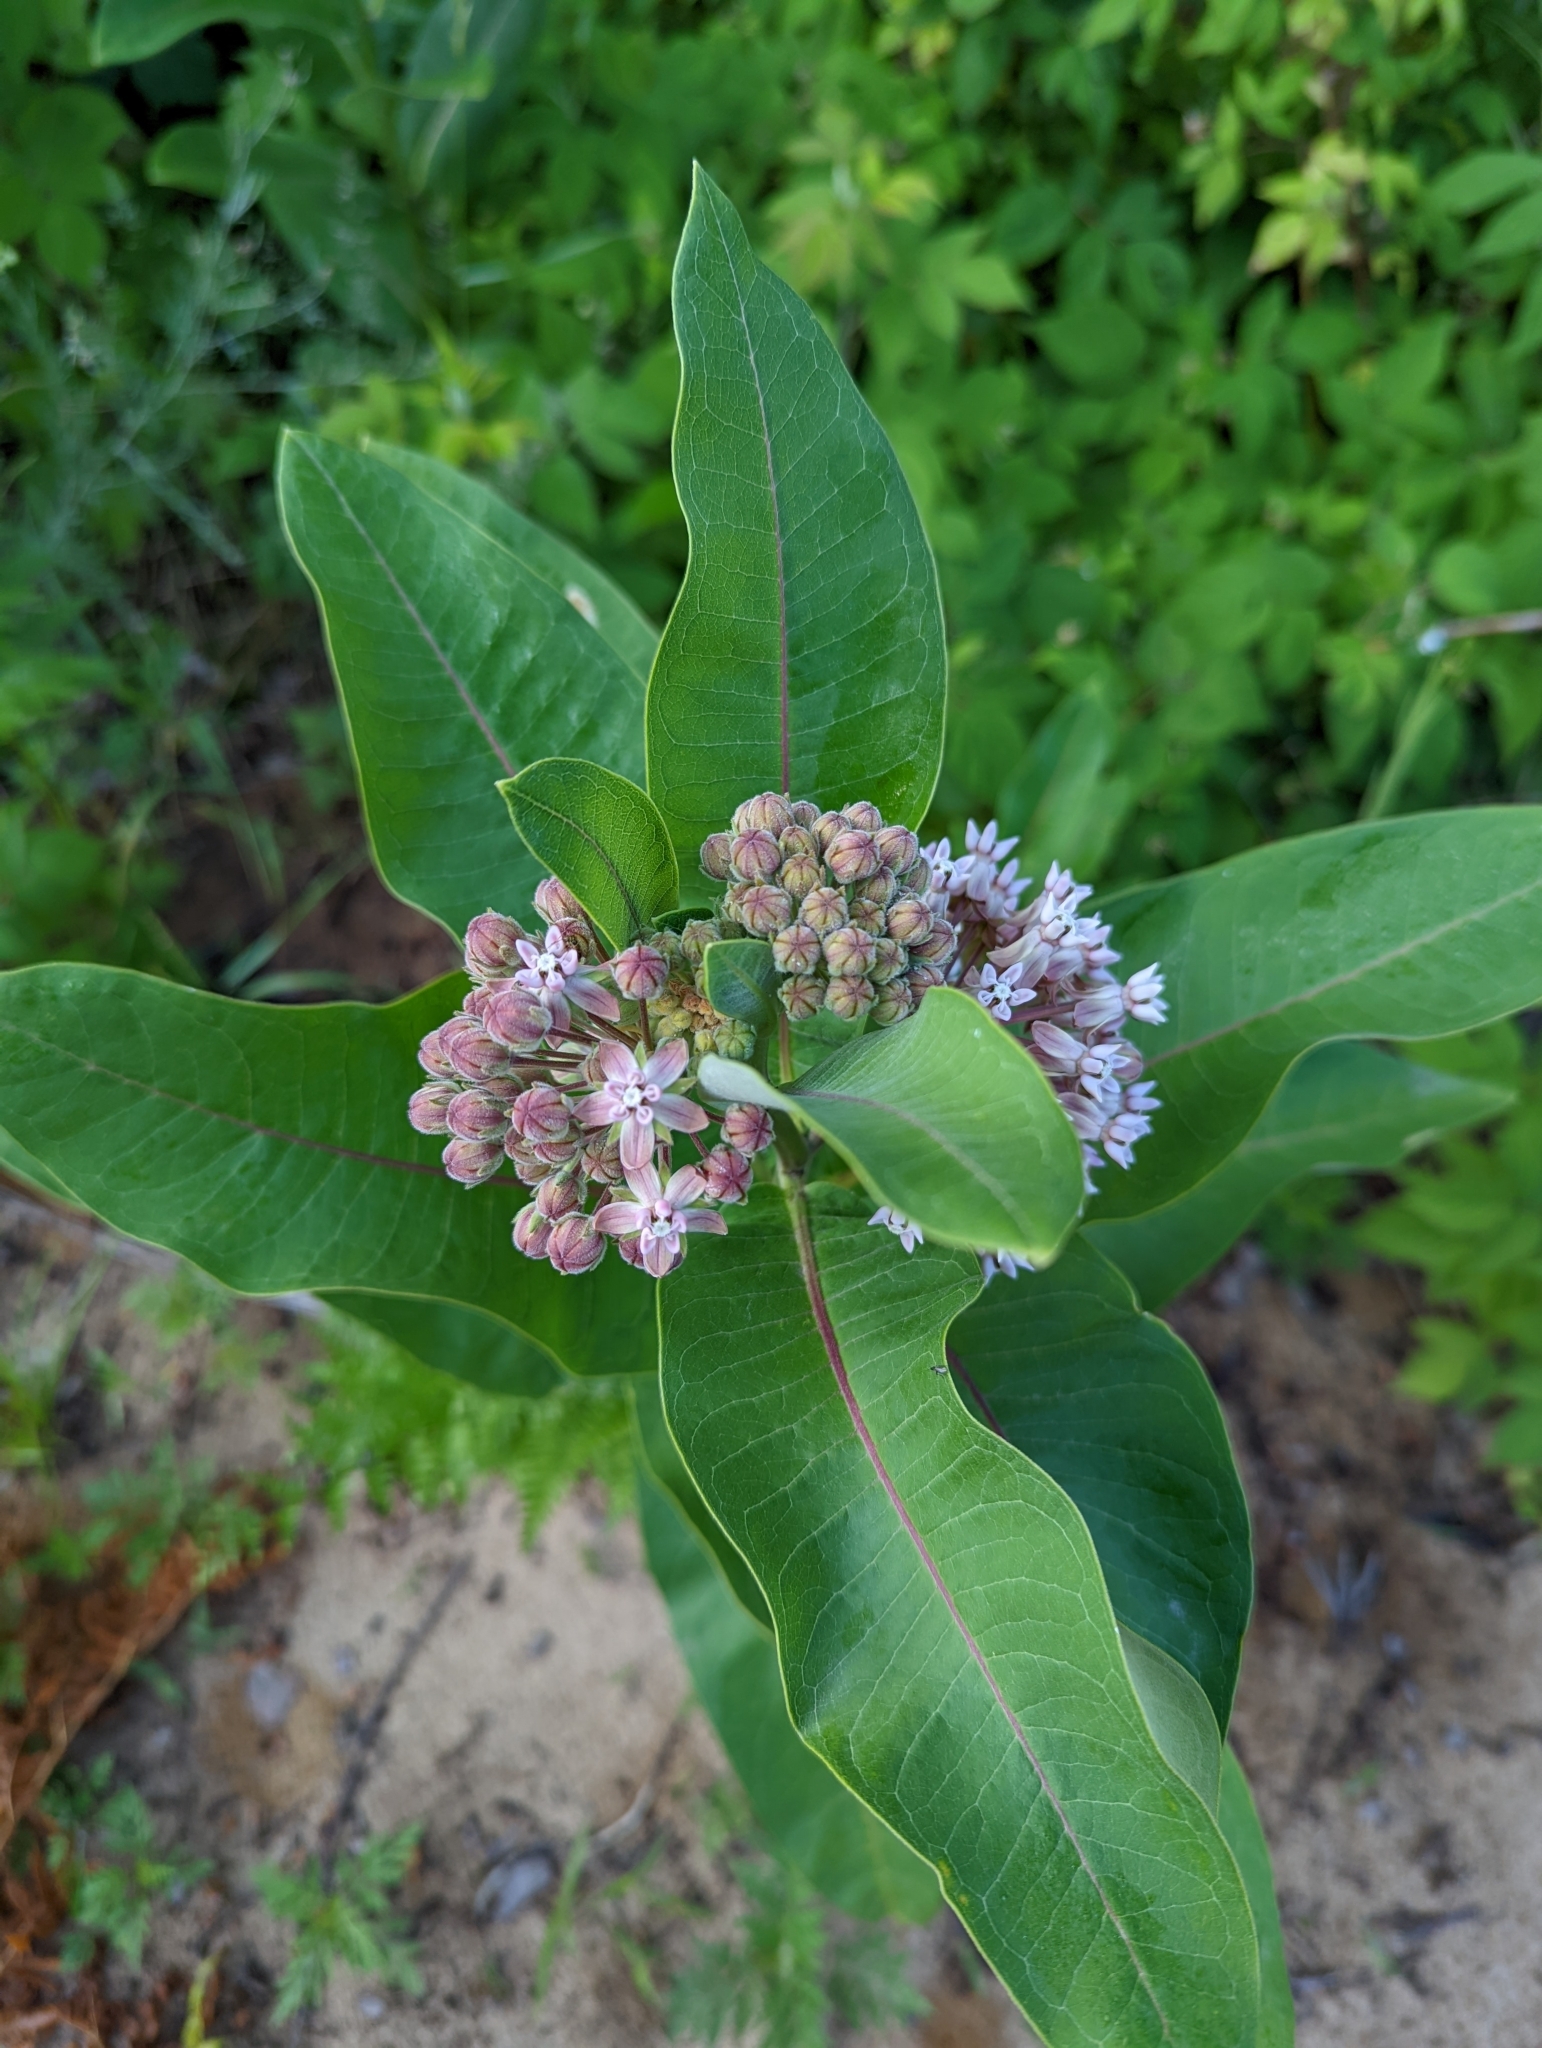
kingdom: Plantae
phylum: Tracheophyta
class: Magnoliopsida
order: Gentianales
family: Apocynaceae
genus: Asclepias
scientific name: Asclepias syriaca
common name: Common milkweed
